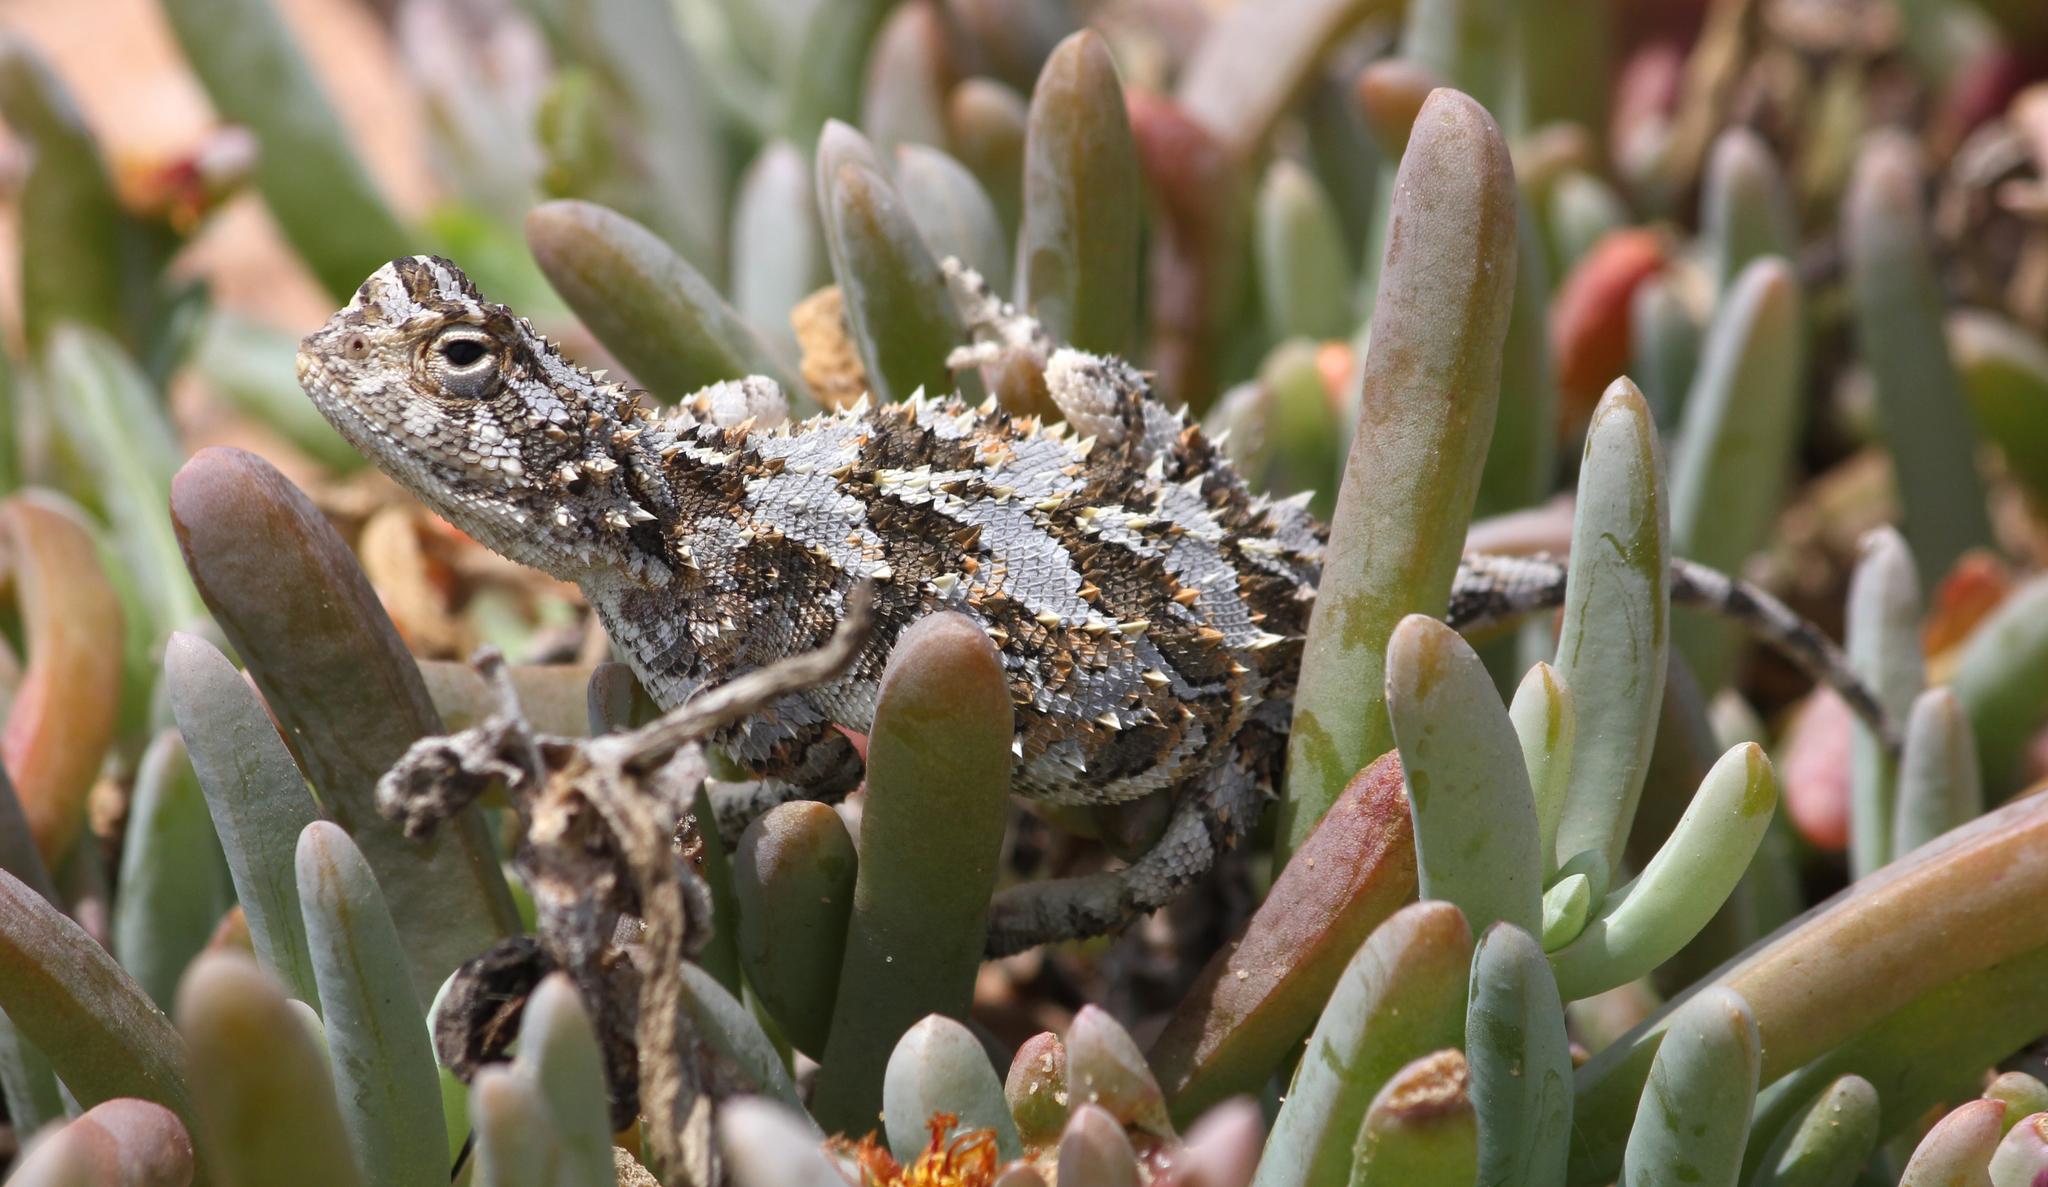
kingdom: Animalia
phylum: Chordata
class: Squamata
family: Agamidae
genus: Agama
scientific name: Agama hispida
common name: Common spiny agama
